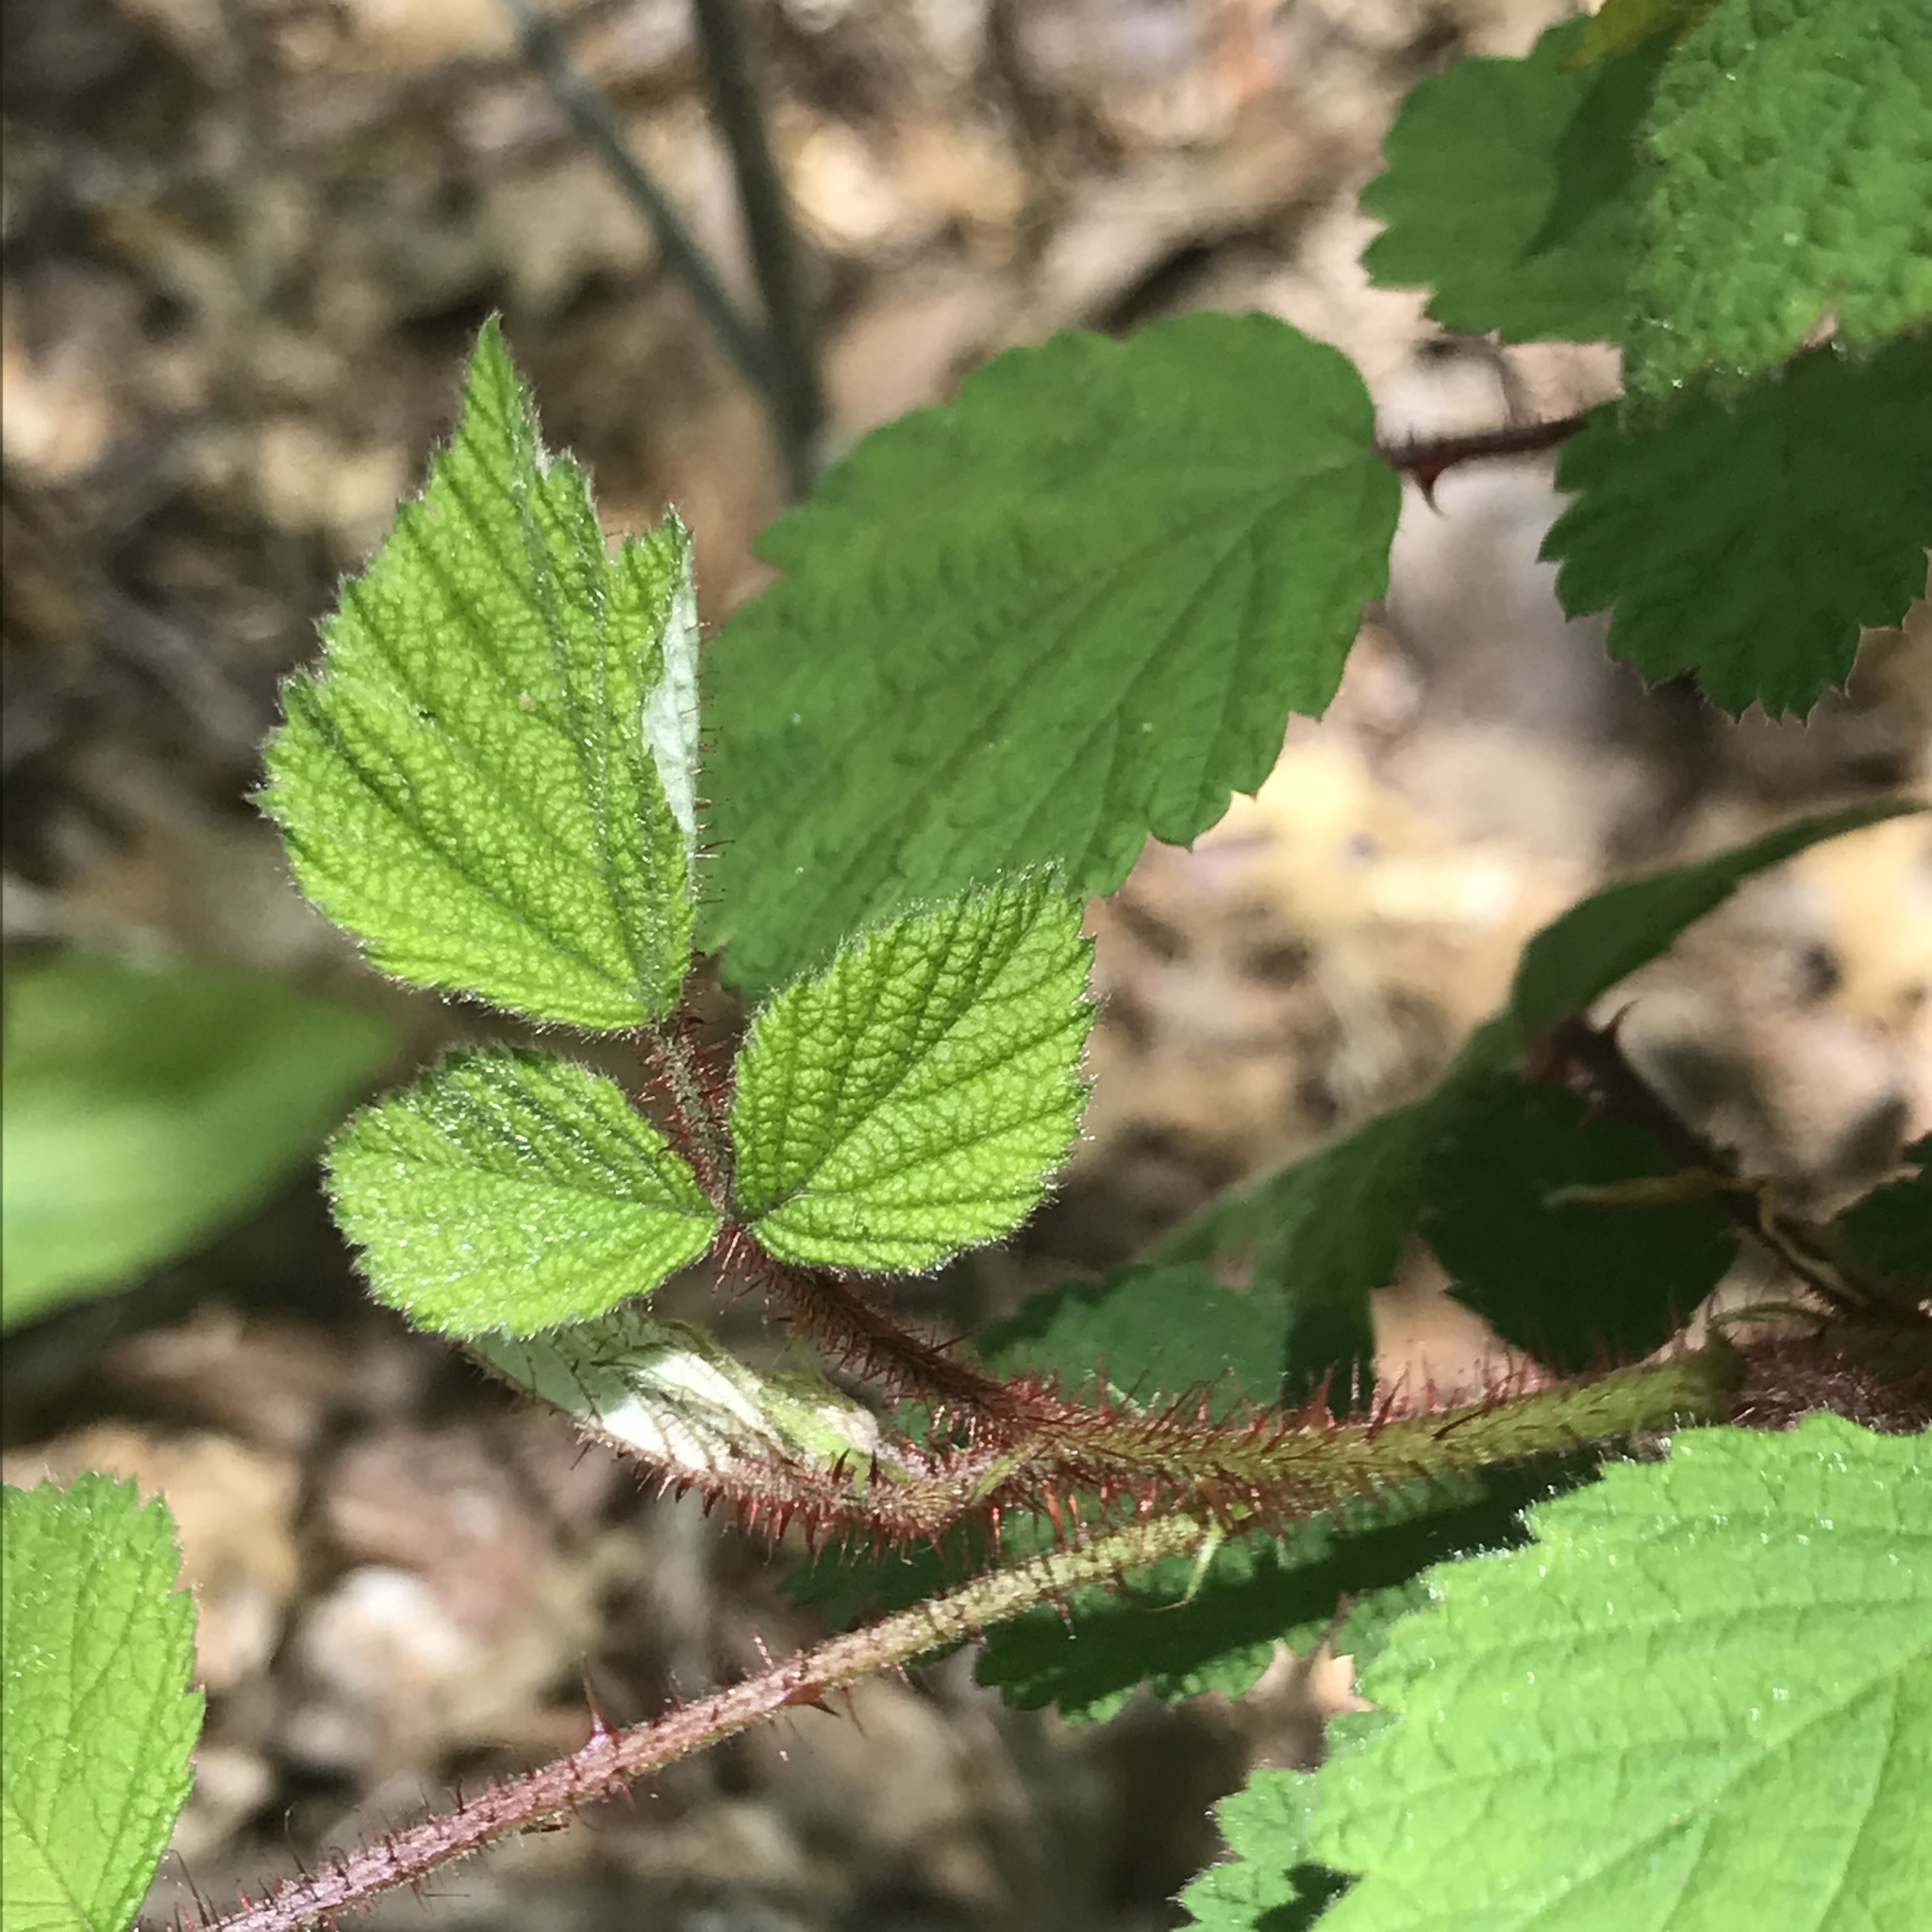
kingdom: Plantae
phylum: Tracheophyta
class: Magnoliopsida
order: Rosales
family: Rosaceae
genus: Rubus
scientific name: Rubus phoenicolasius
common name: Japanese wineberry
